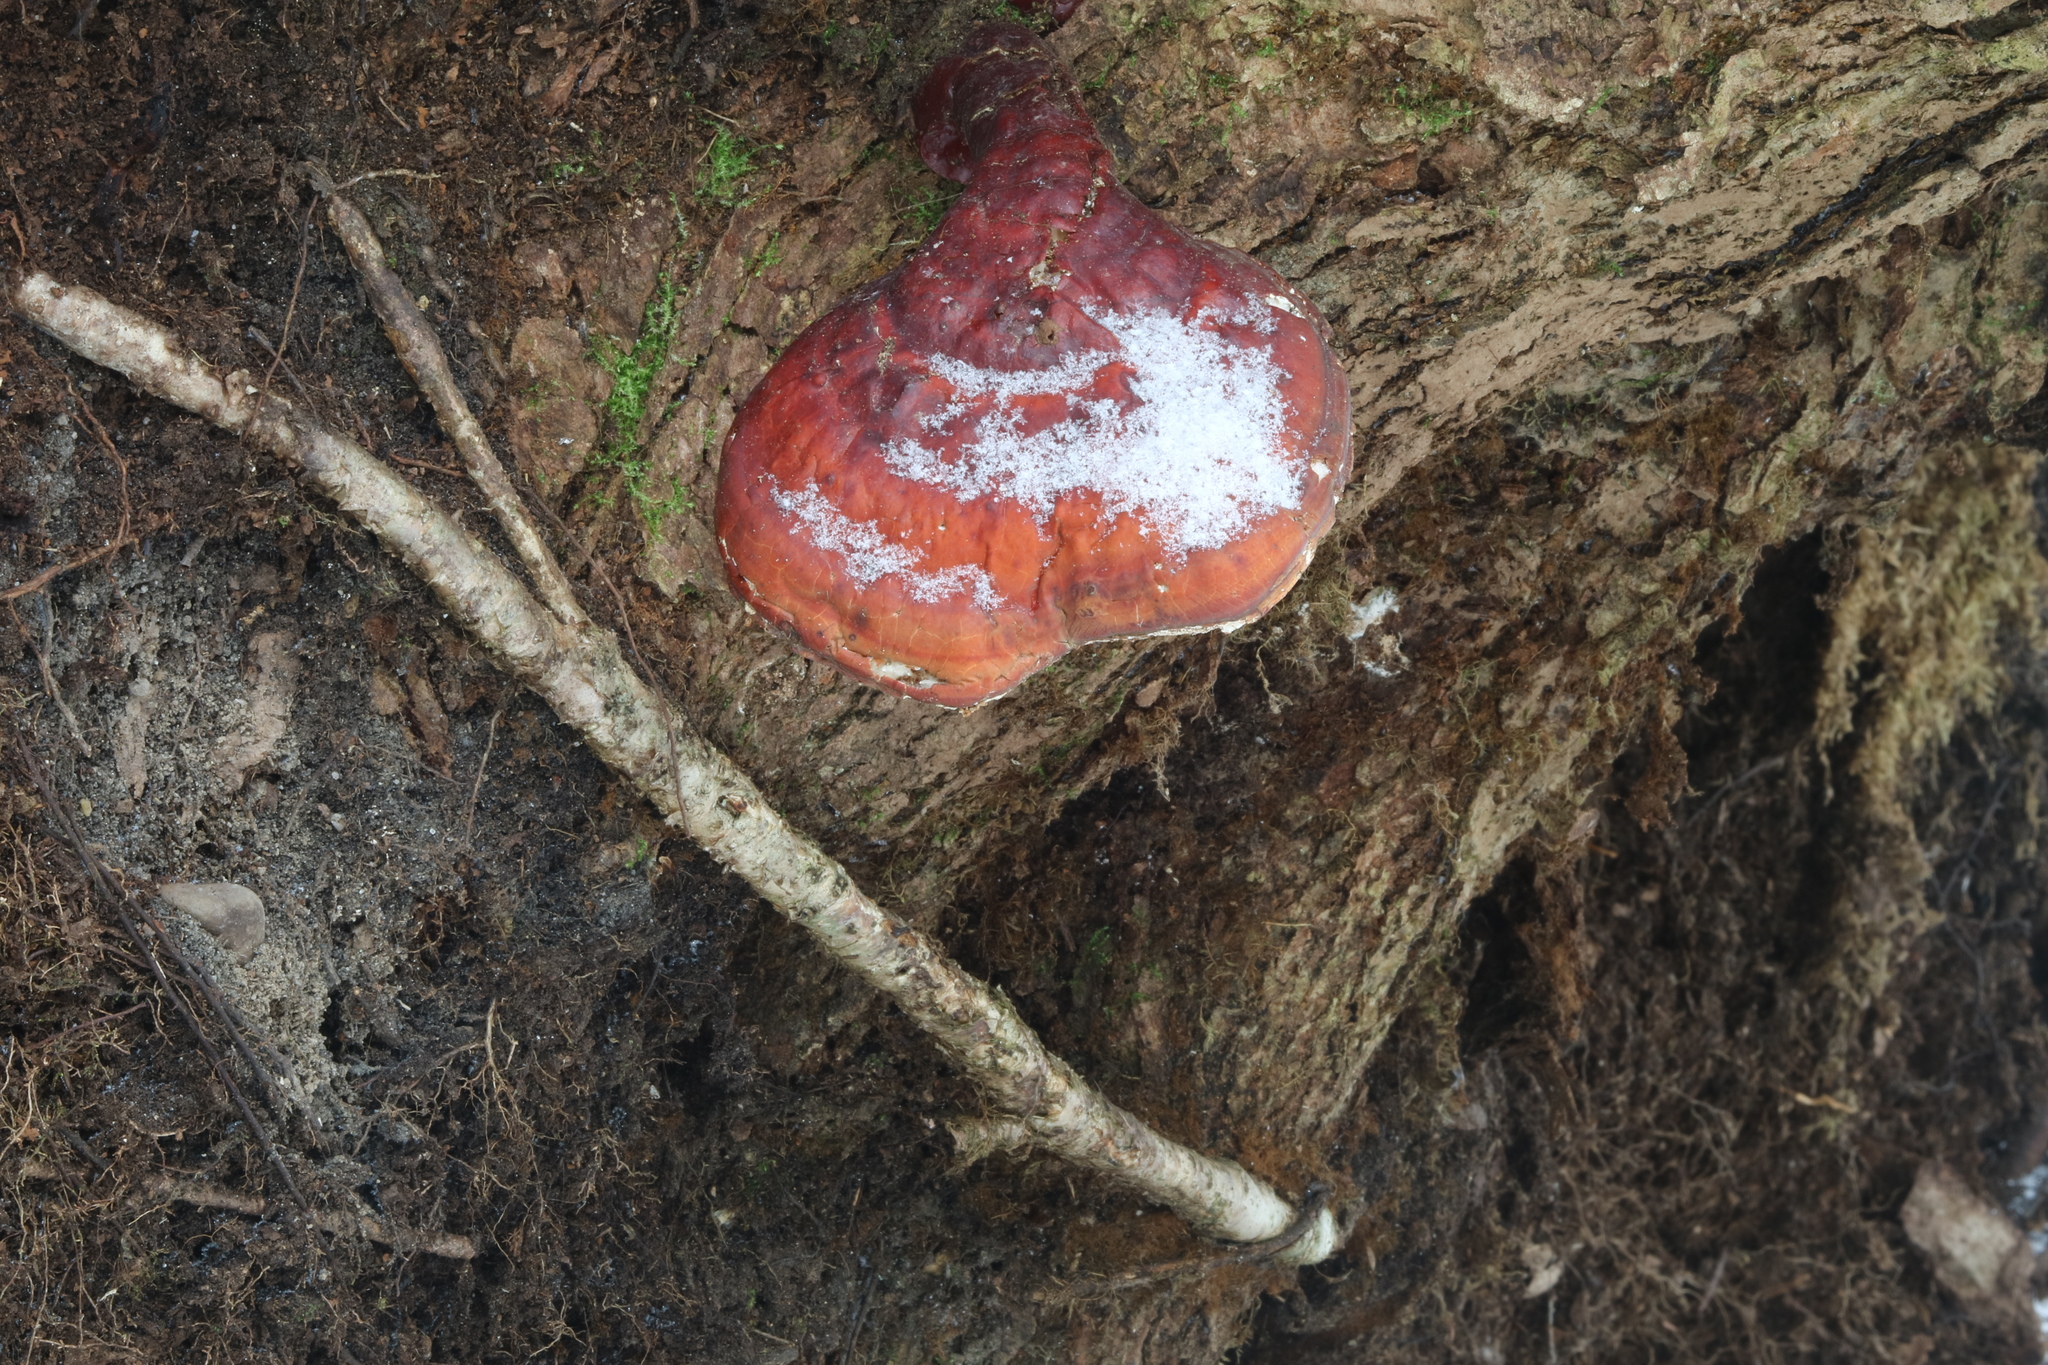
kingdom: Fungi
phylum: Basidiomycota
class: Agaricomycetes
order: Polyporales
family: Polyporaceae
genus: Ganoderma
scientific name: Ganoderma tsugae
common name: Hemlock varnish shelf
